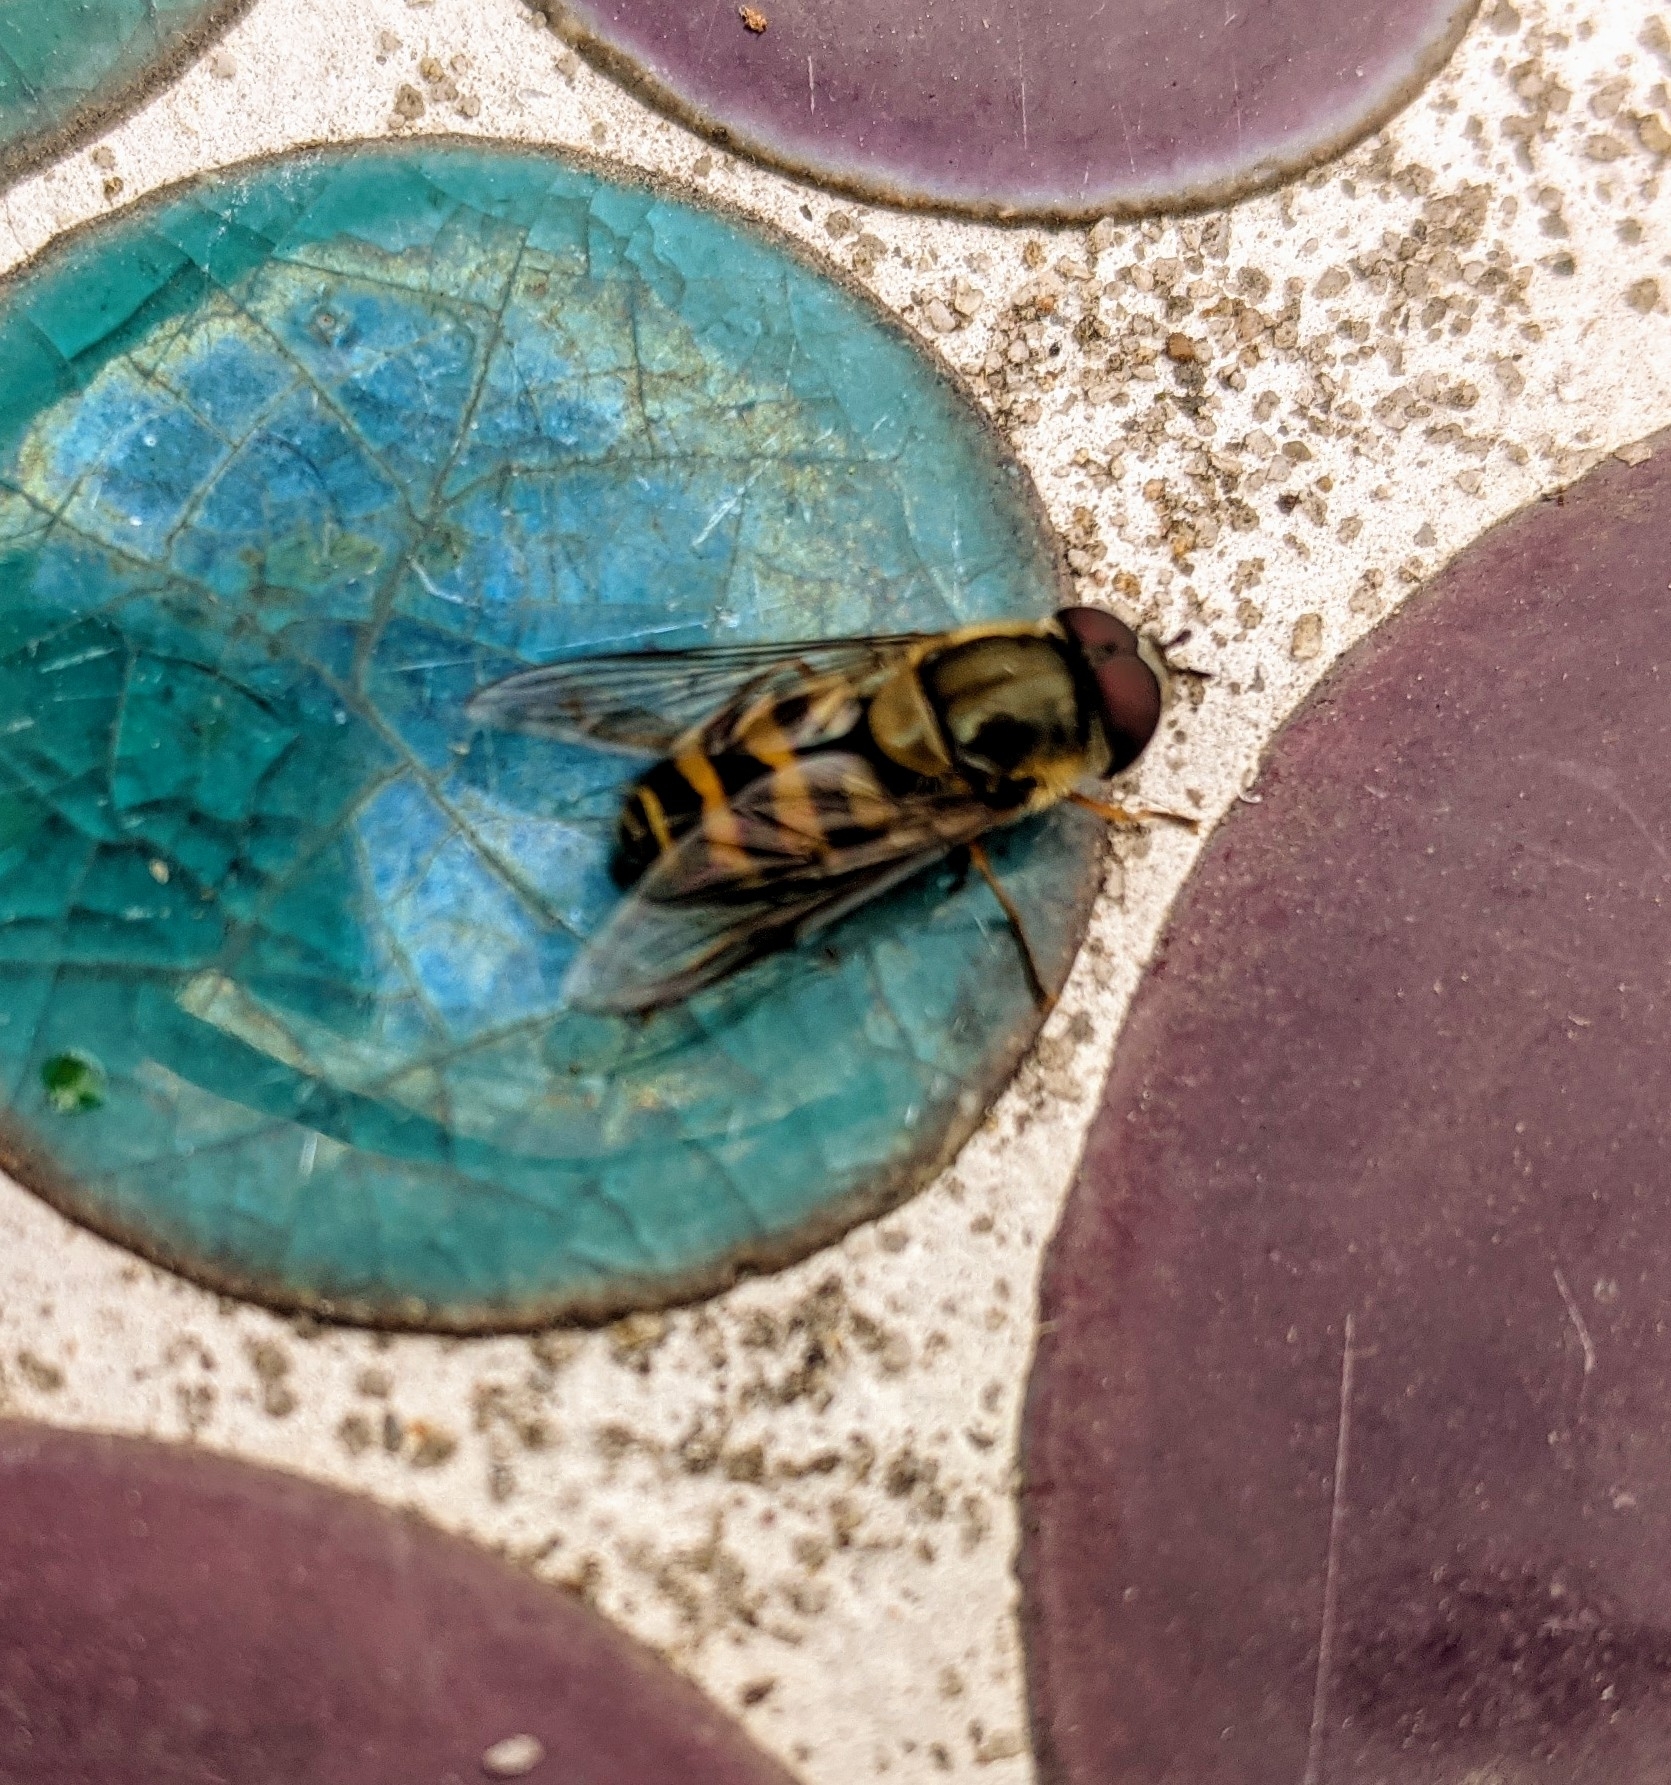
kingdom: Animalia
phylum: Arthropoda
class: Insecta
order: Diptera
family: Syrphidae
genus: Syrphus
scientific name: Syrphus
